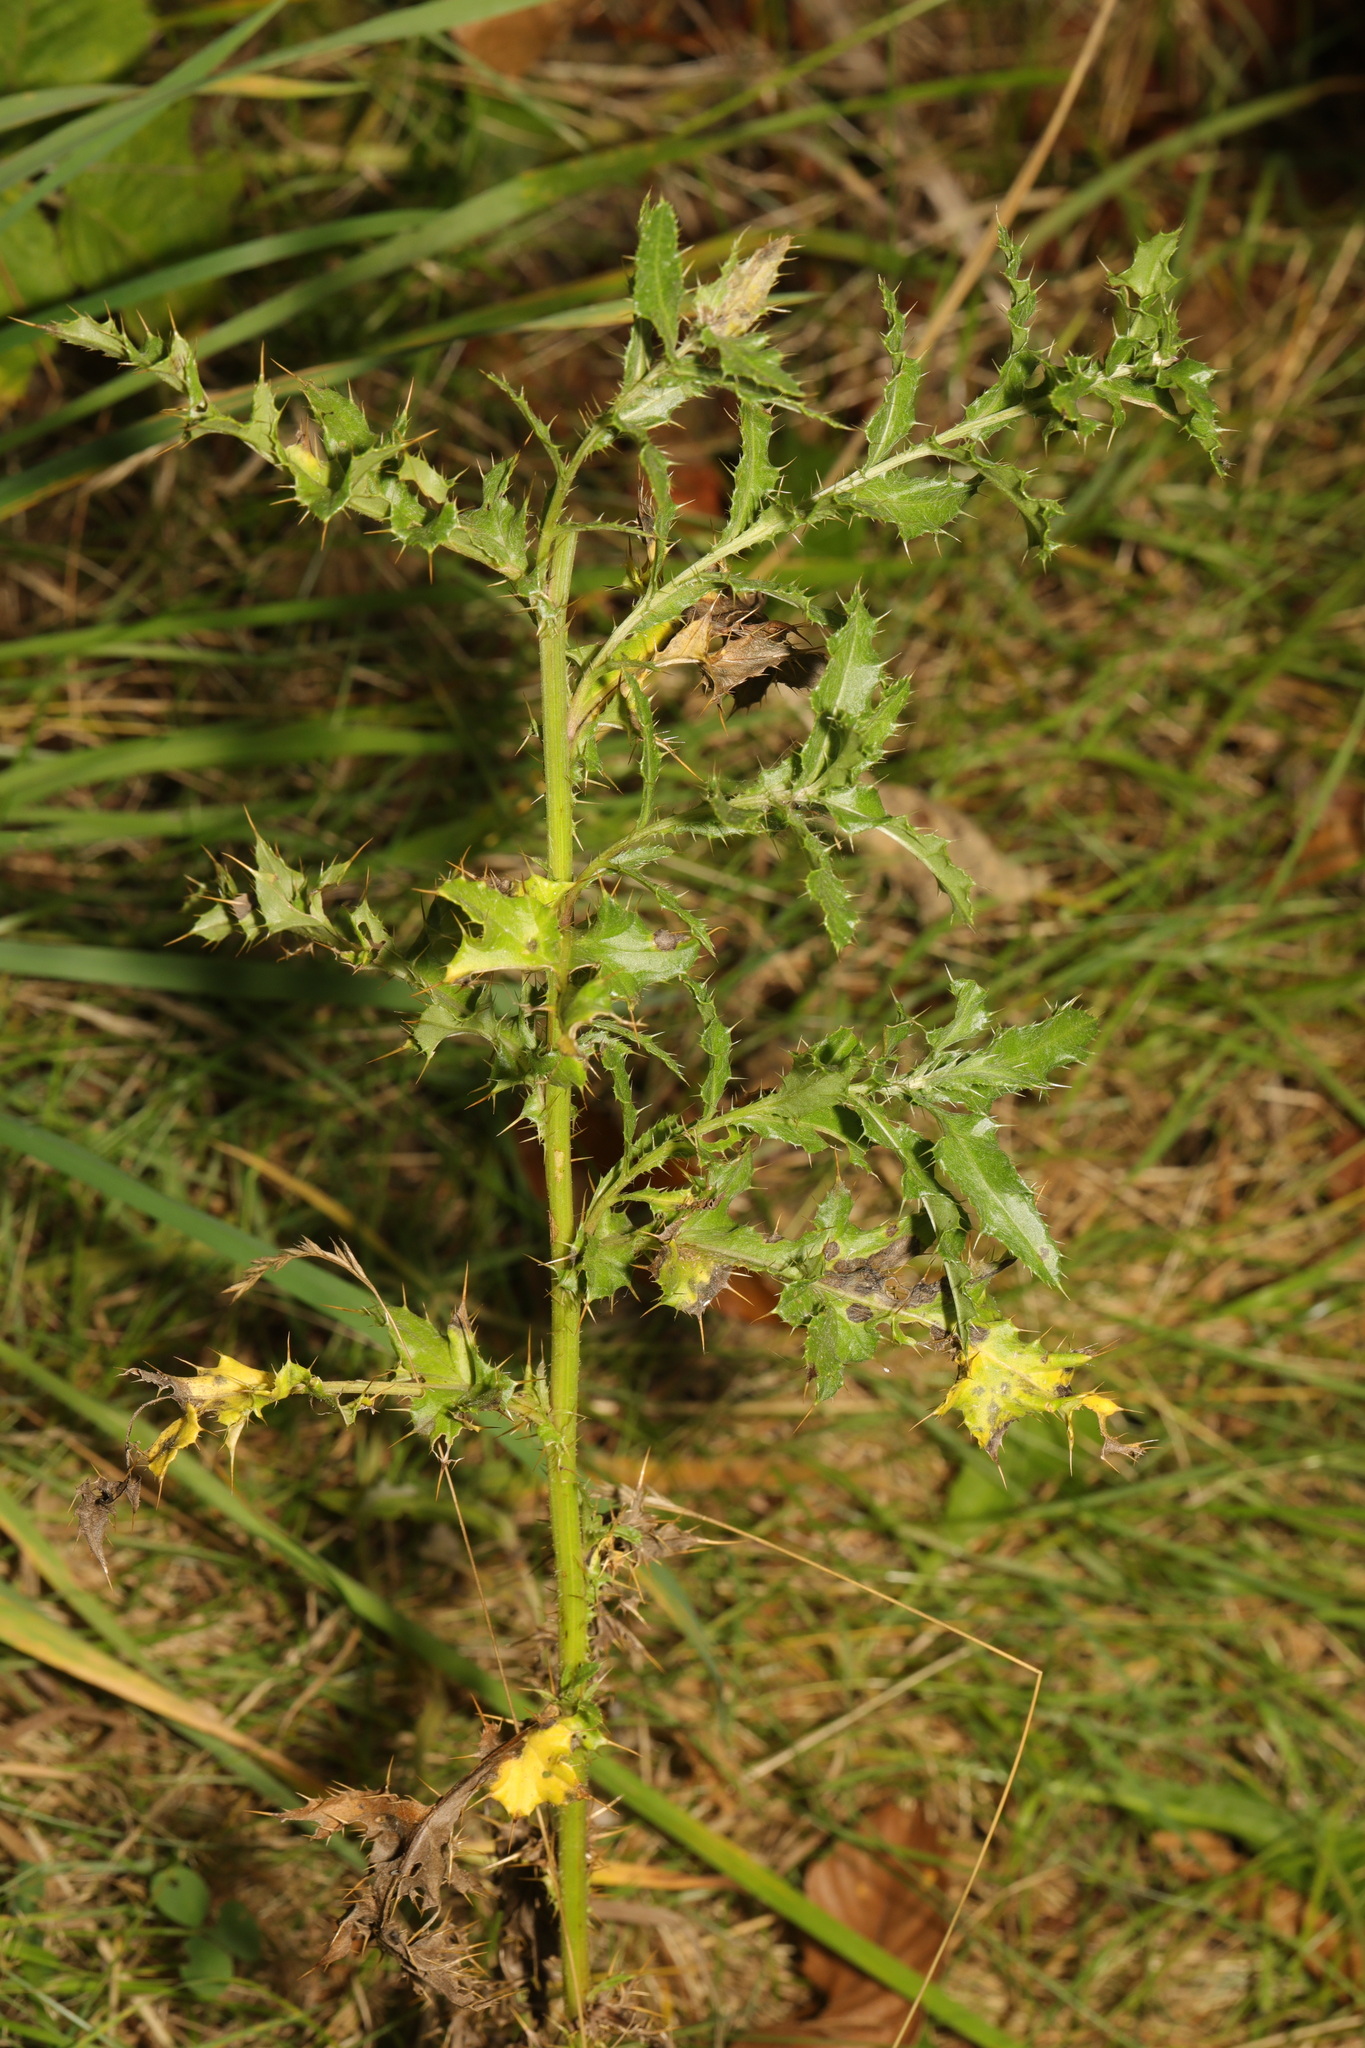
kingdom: Plantae
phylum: Tracheophyta
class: Magnoliopsida
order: Asterales
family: Asteraceae
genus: Cirsium
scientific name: Cirsium arvense
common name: Creeping thistle
